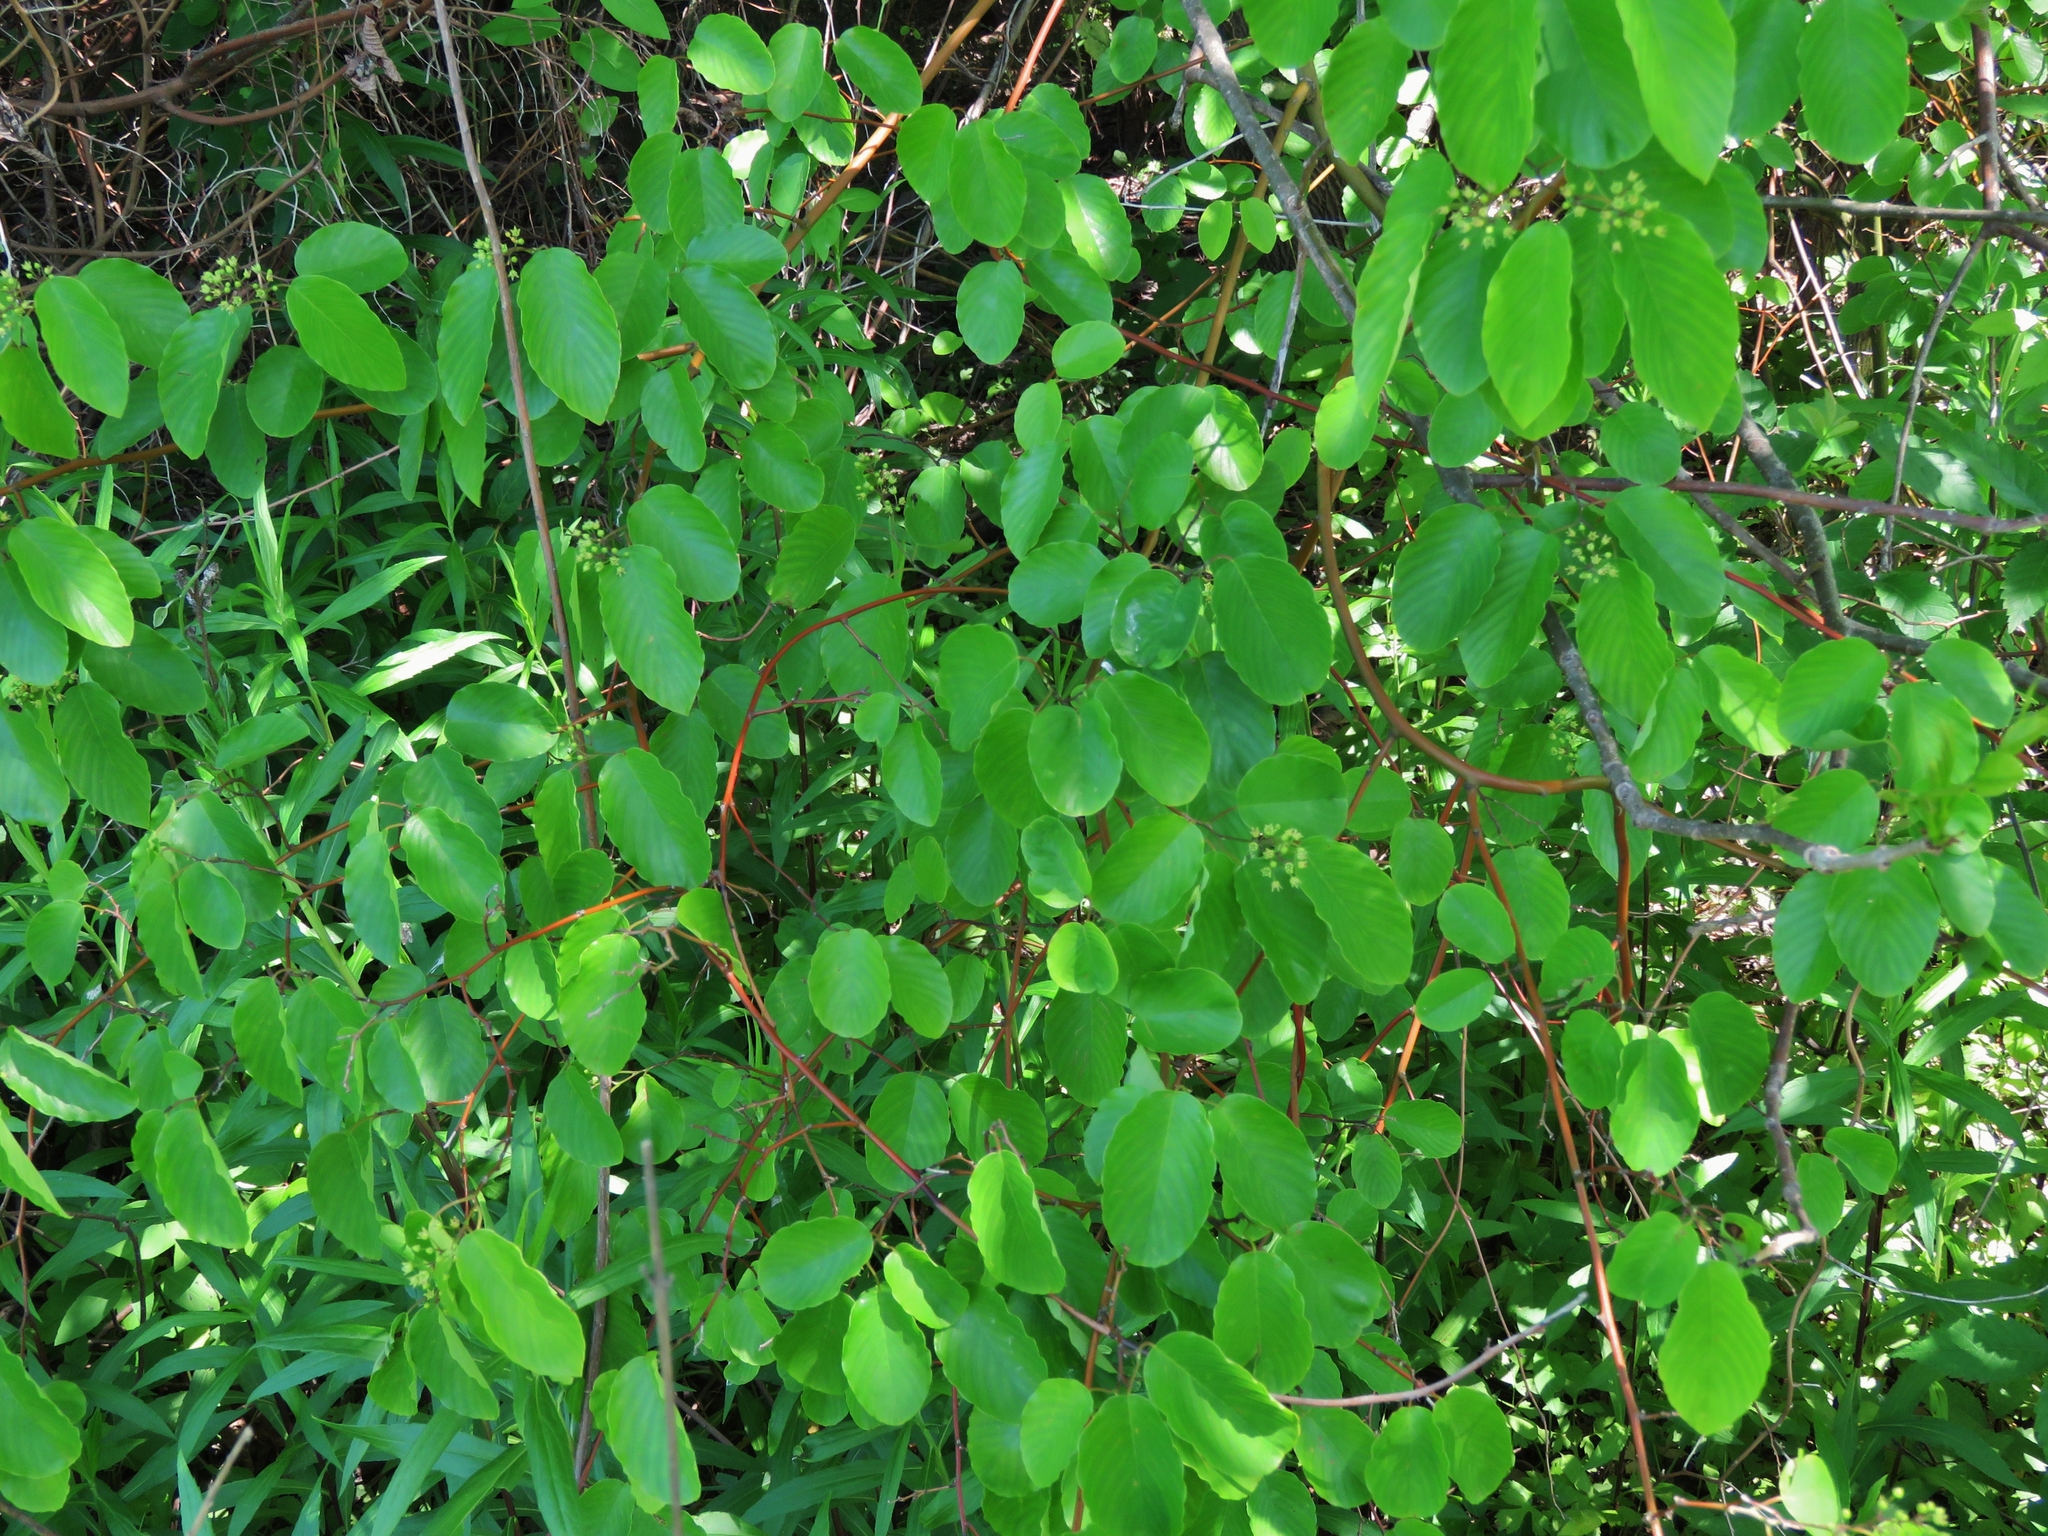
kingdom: Plantae
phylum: Tracheophyta
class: Magnoliopsida
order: Rosales
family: Rhamnaceae
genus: Berchemia
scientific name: Berchemia scandens
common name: Supplejack
